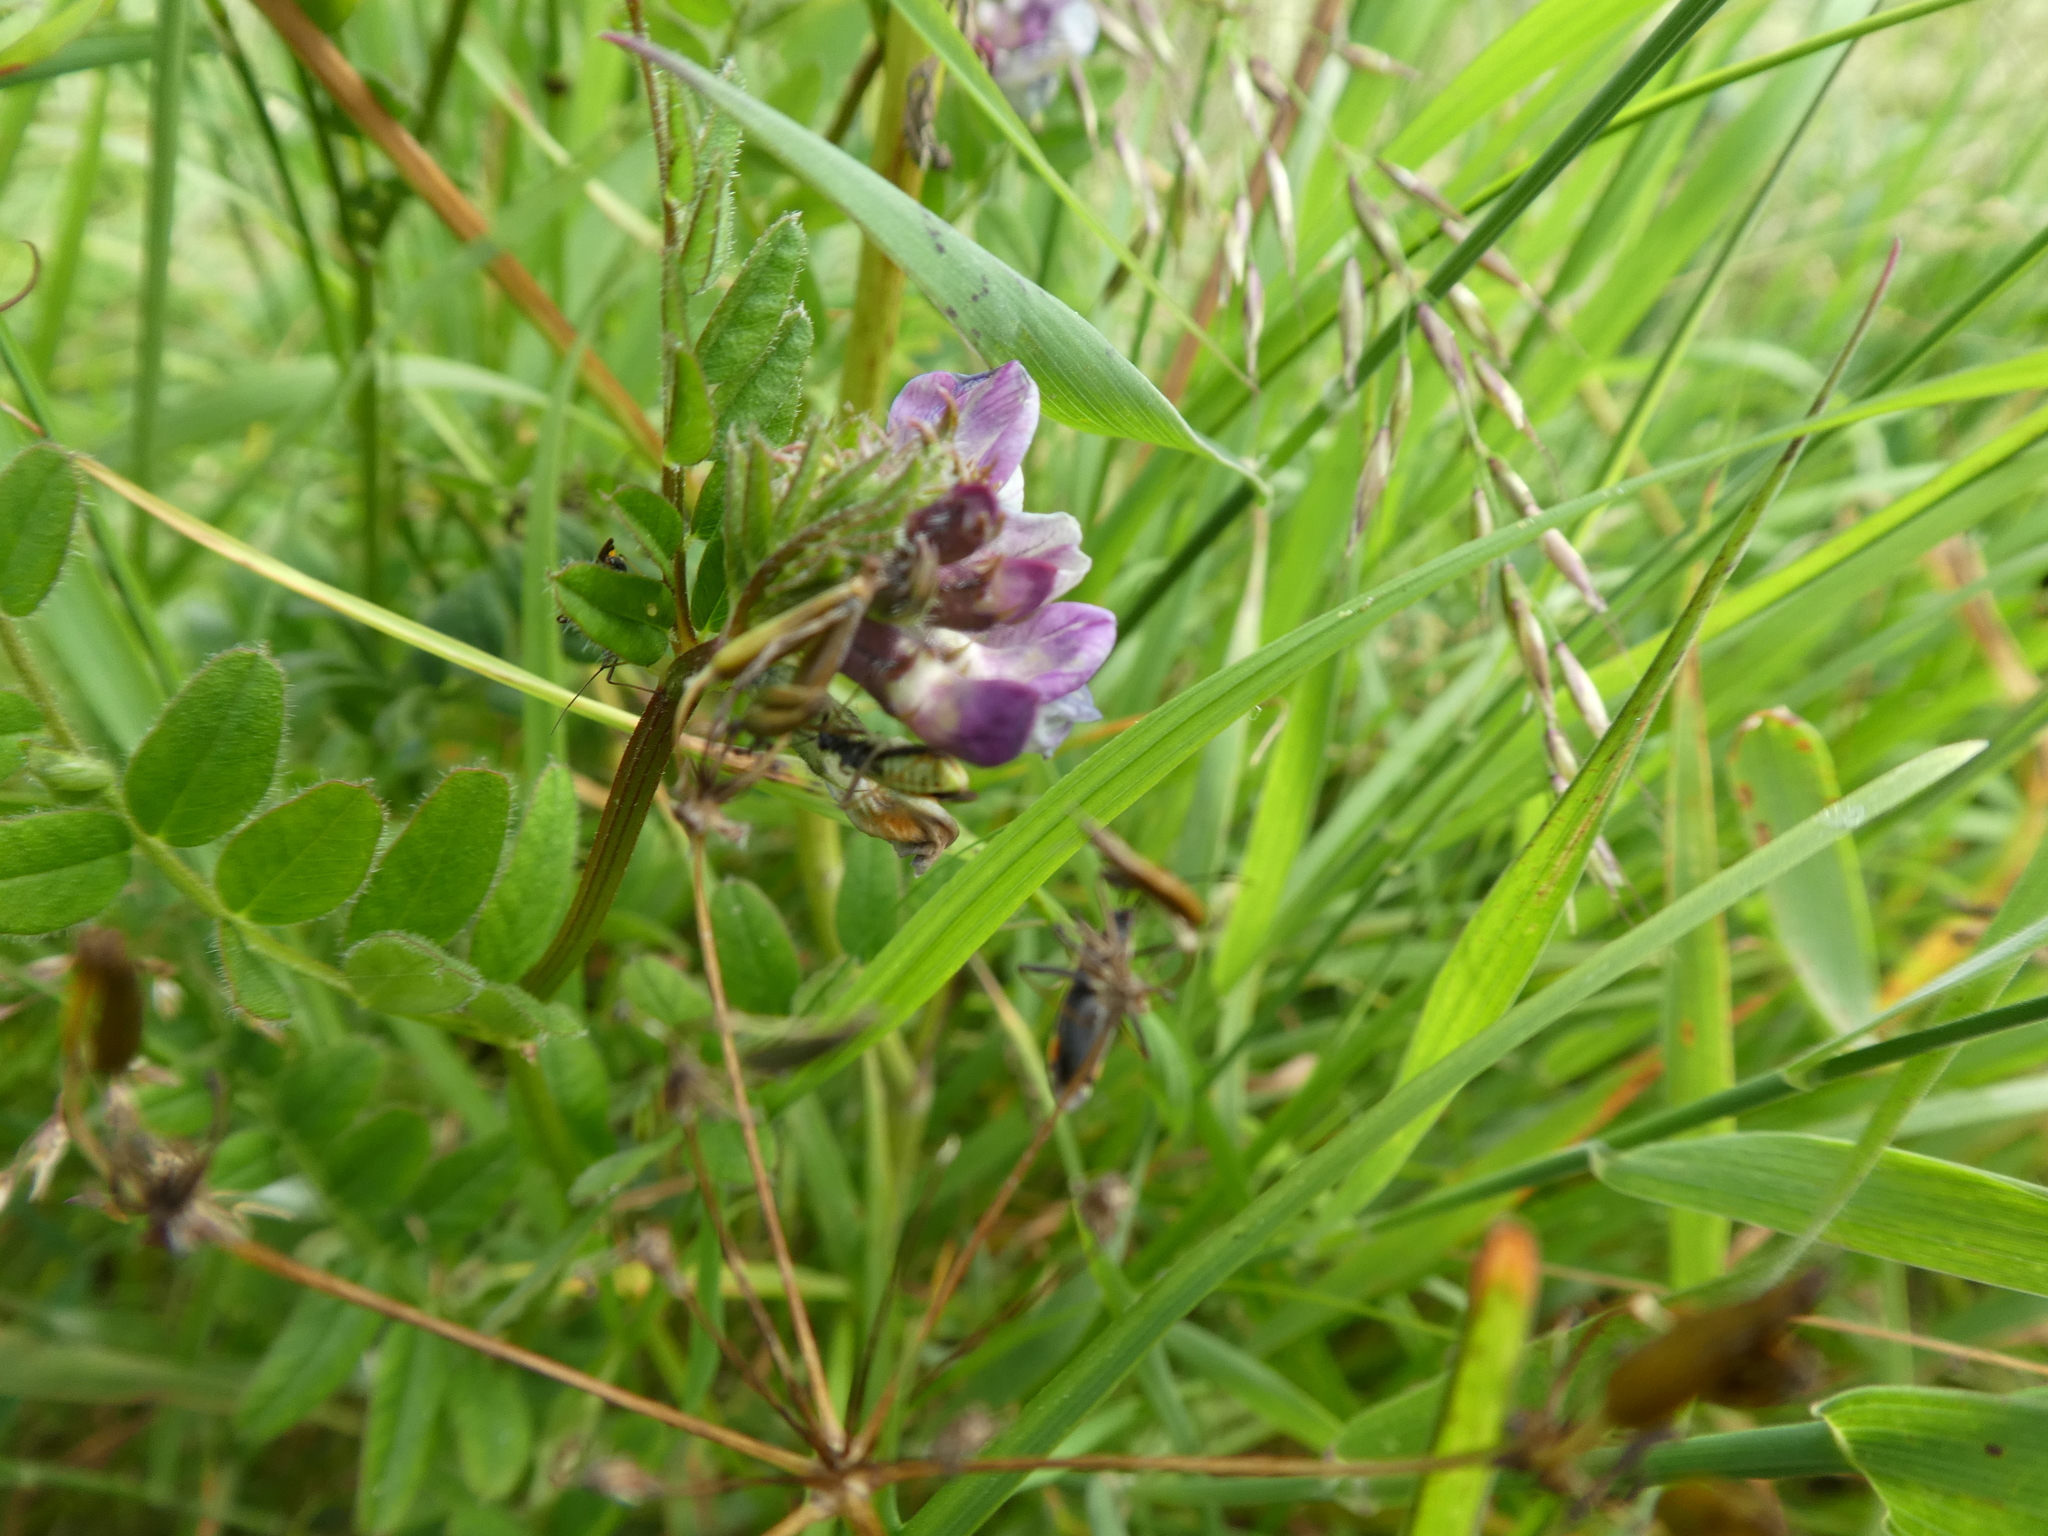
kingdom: Plantae
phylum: Tracheophyta
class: Magnoliopsida
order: Fabales
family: Fabaceae
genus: Vicia
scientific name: Vicia sepium
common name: Bush vetch
